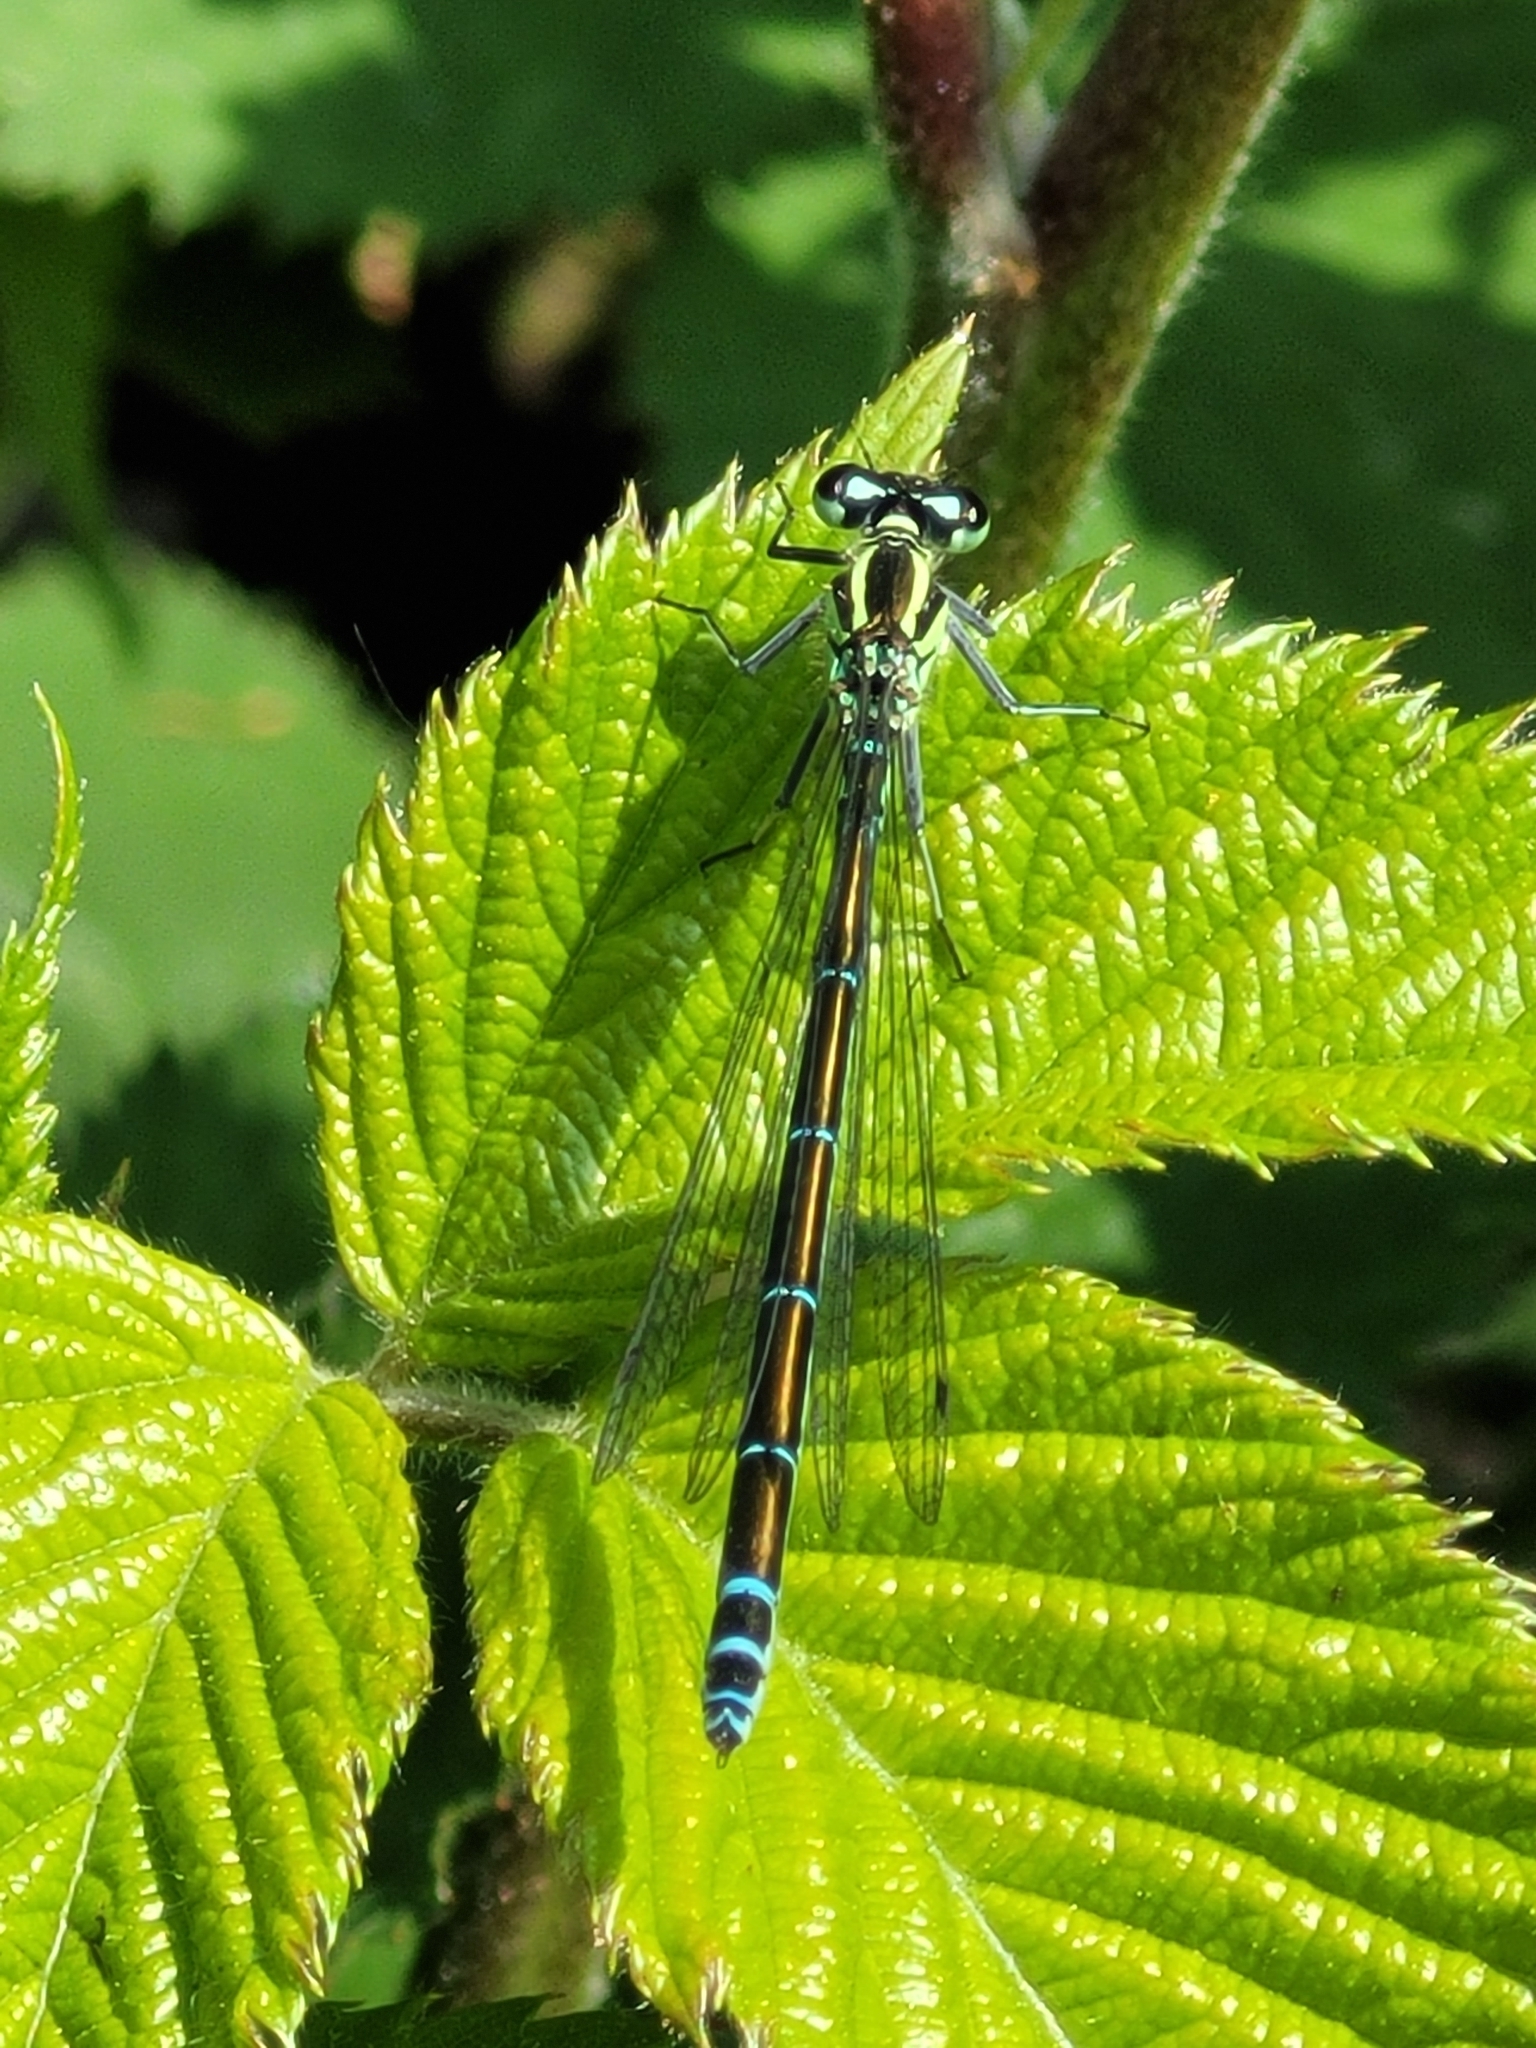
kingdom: Animalia
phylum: Arthropoda
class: Insecta
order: Odonata
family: Coenagrionidae
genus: Coenagrion
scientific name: Coenagrion puella
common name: Azure damselfly
